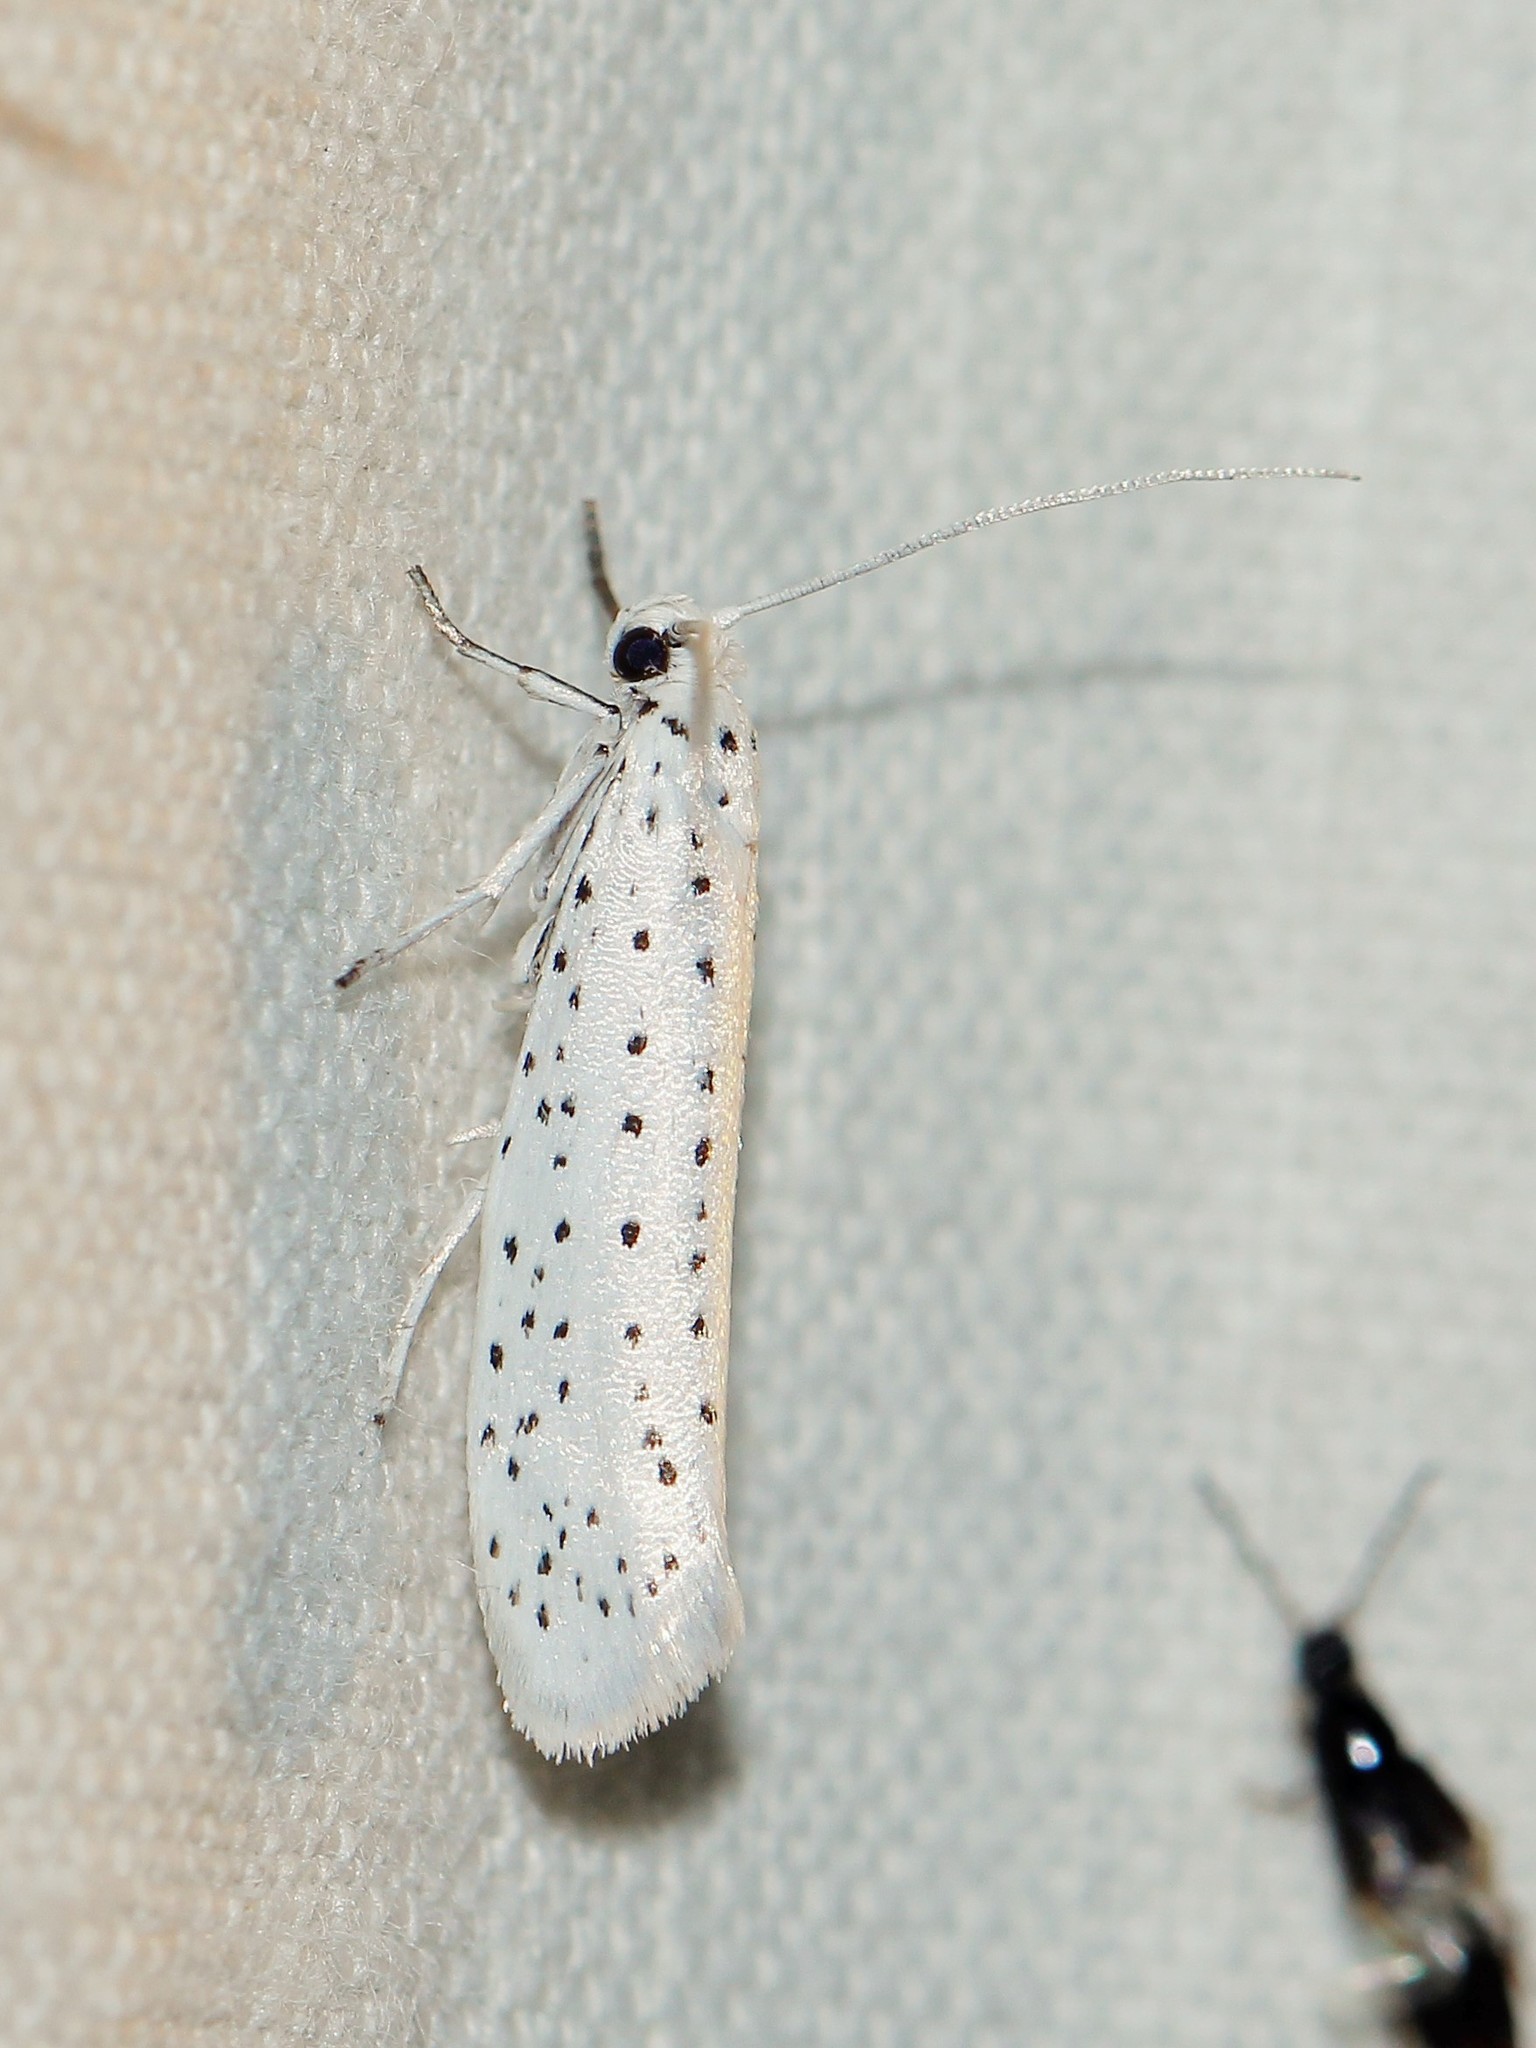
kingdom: Animalia
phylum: Arthropoda
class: Insecta
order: Lepidoptera
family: Yponomeutidae
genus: Yponomeuta
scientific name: Yponomeuta evonymella
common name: Bird-cherry ermine
